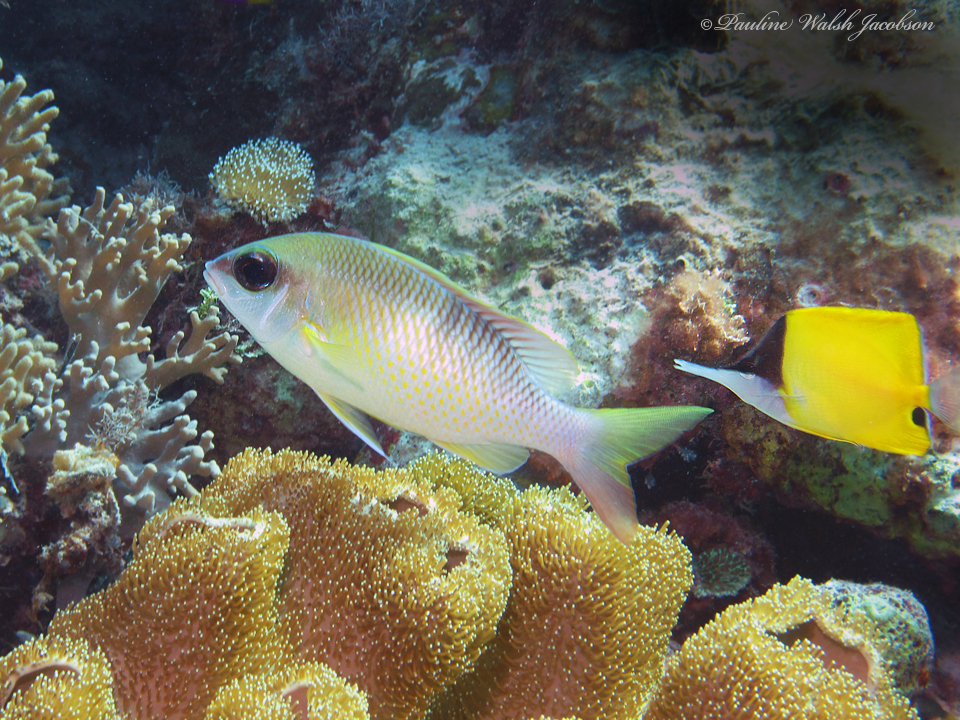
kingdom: Animalia
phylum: Chordata
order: Perciformes
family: Nemipteridae
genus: Scolopsis
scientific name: Scolopsis margaritifera
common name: Pearly monocle bream
